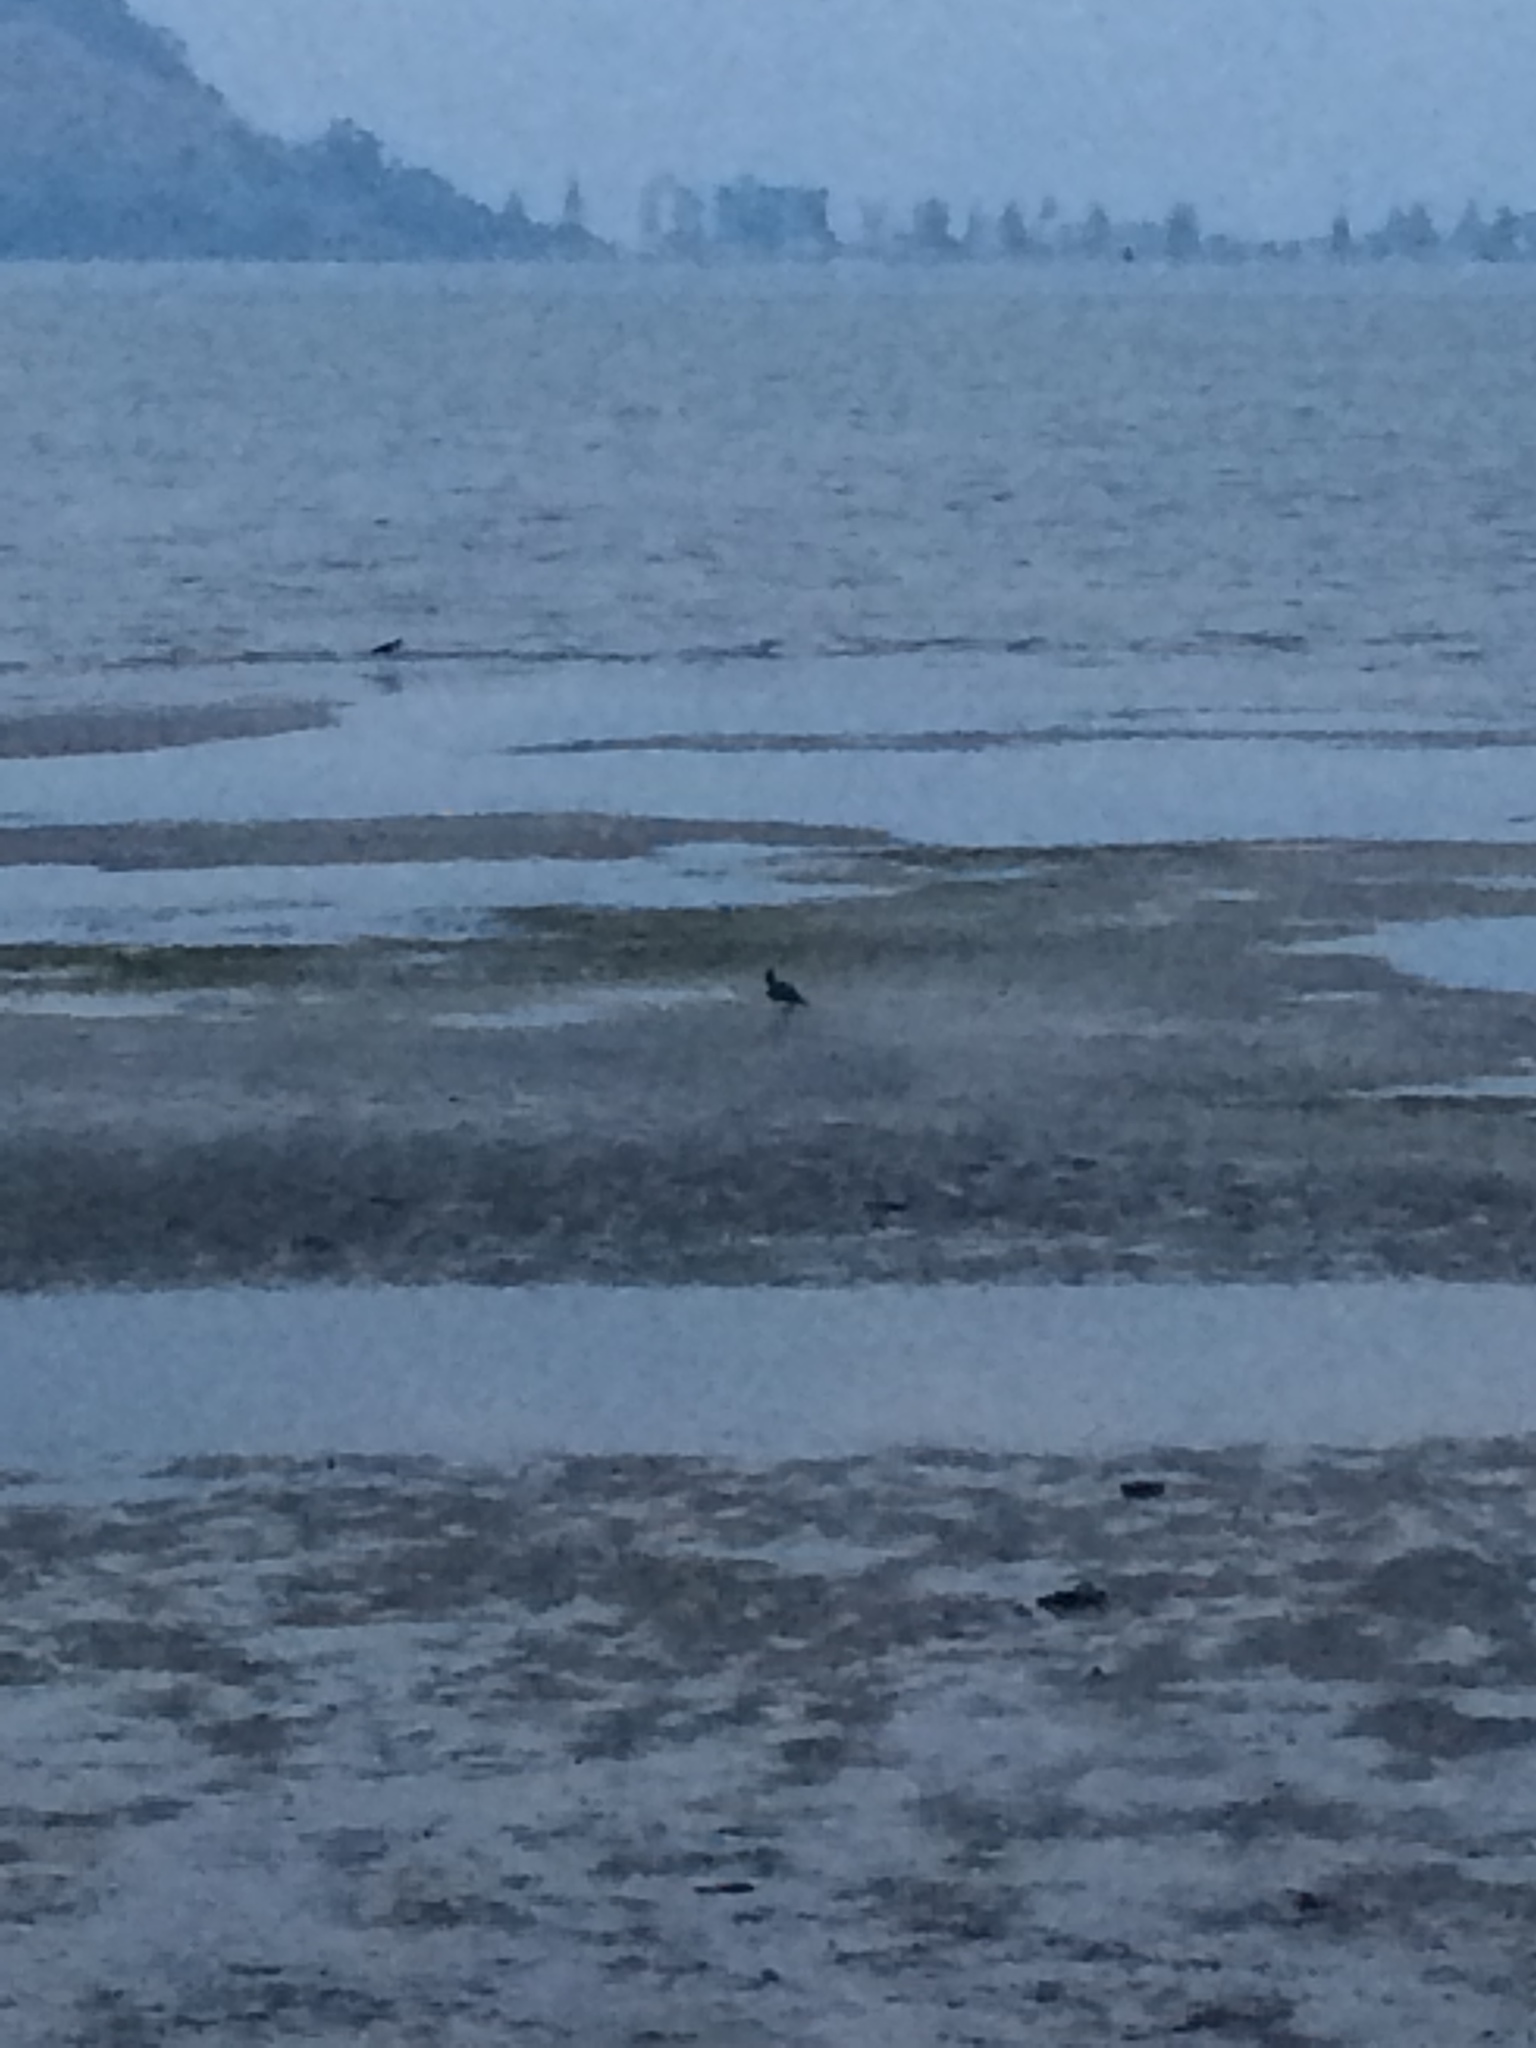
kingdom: Animalia
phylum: Chordata
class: Aves
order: Charadriiformes
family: Haematopodidae
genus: Haematopus
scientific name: Haematopus finschi
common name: South island oystercatcher
